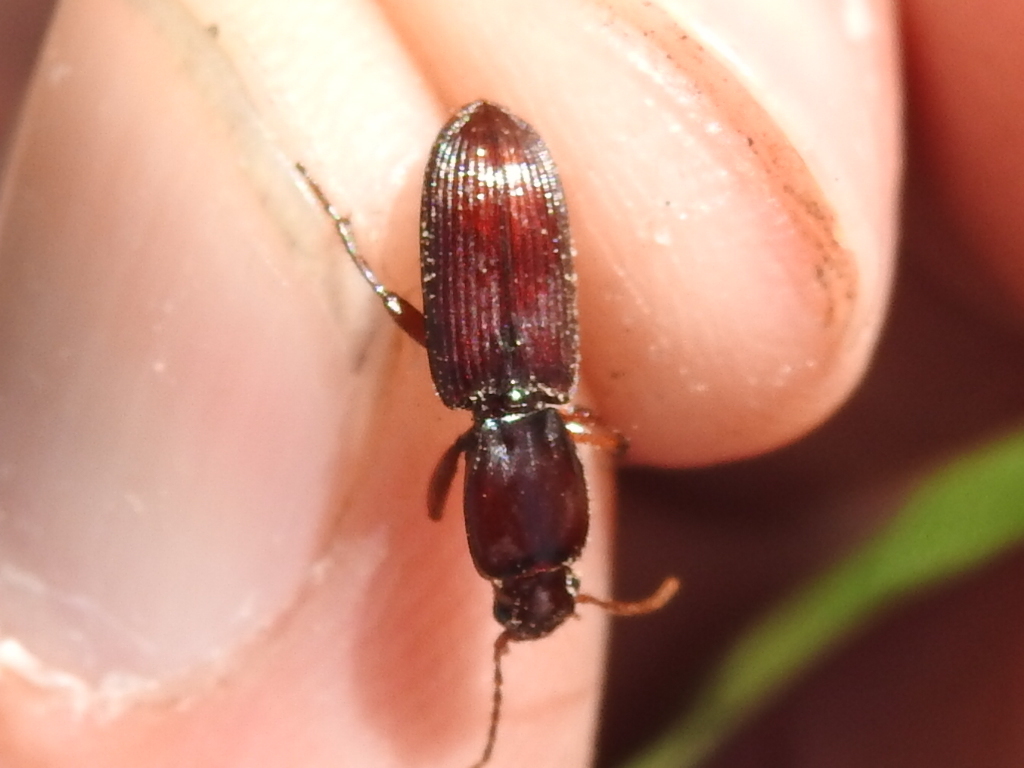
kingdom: Animalia
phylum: Arthropoda
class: Insecta
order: Coleoptera
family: Carabidae
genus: Stenomorphus
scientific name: Stenomorphus californicus
